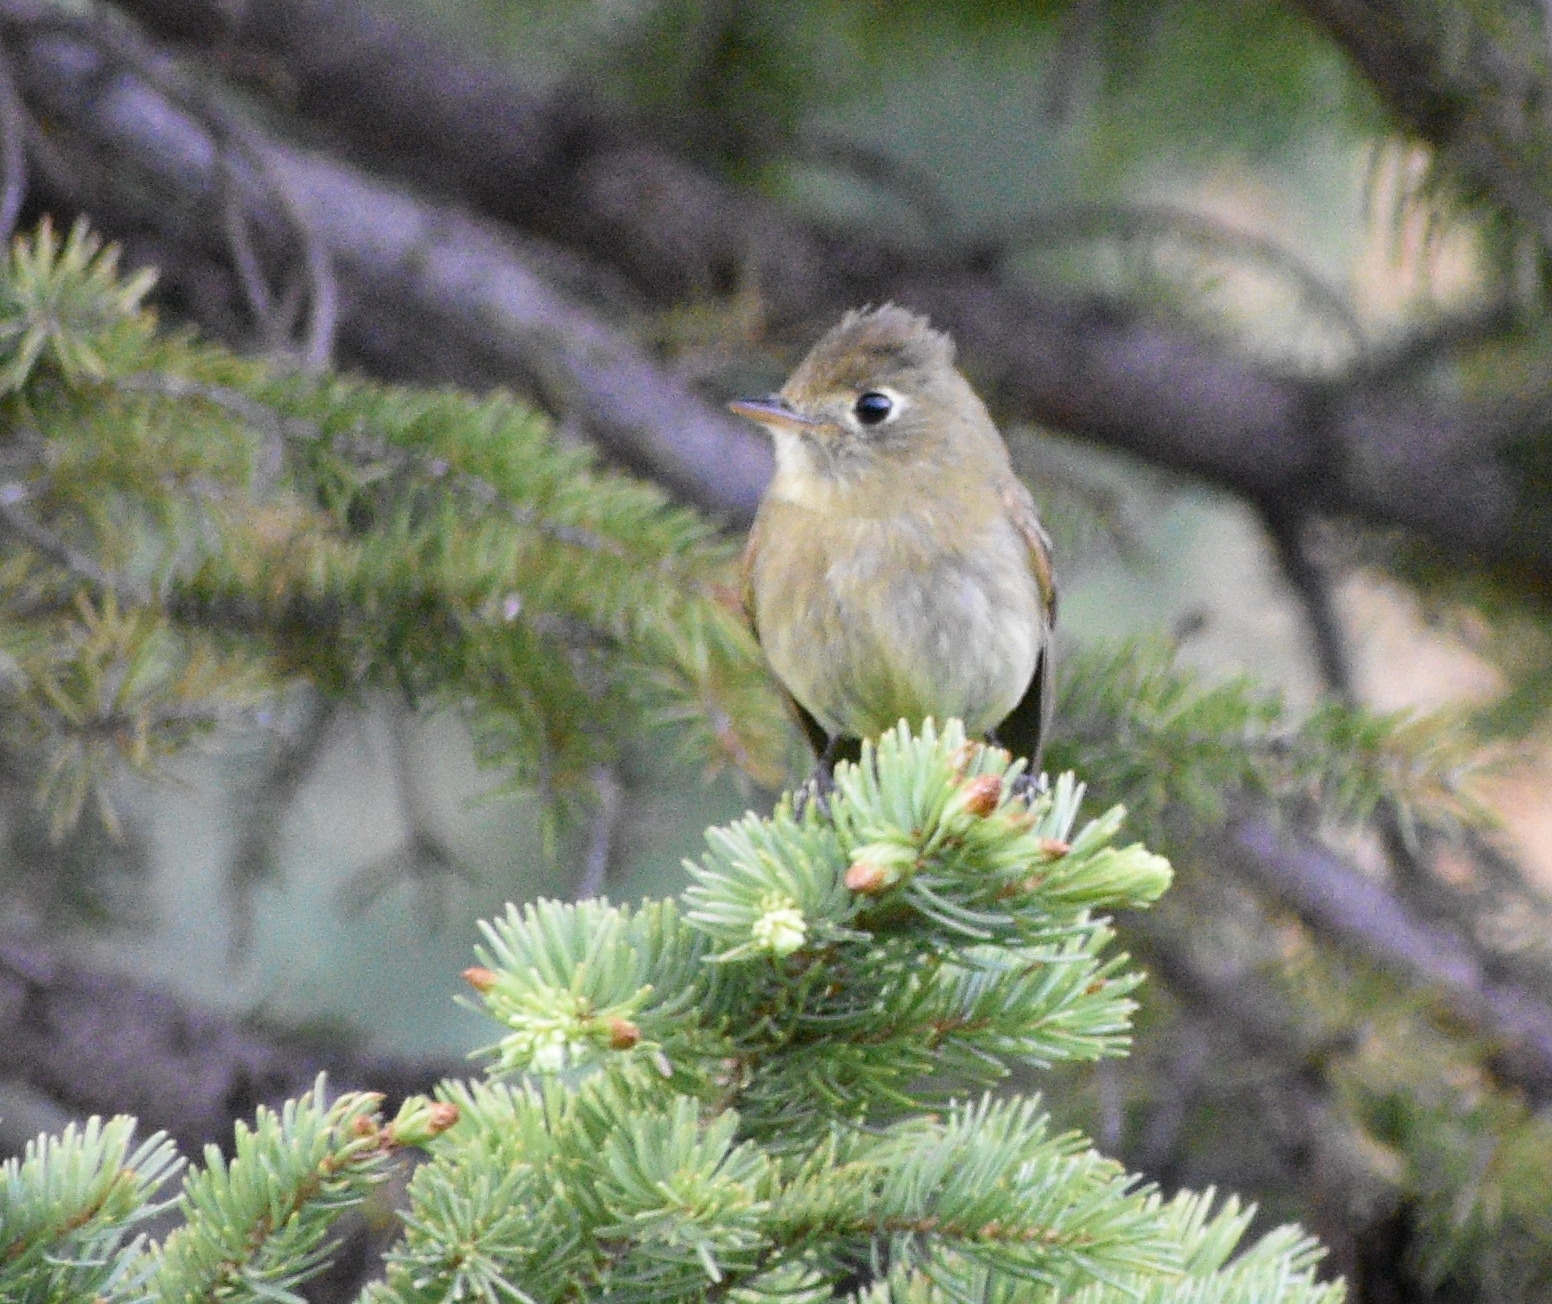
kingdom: Animalia
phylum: Chordata
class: Aves
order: Passeriformes
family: Tyrannidae
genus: Empidonax
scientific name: Empidonax difficilis
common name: Pacific-slope flycatcher
